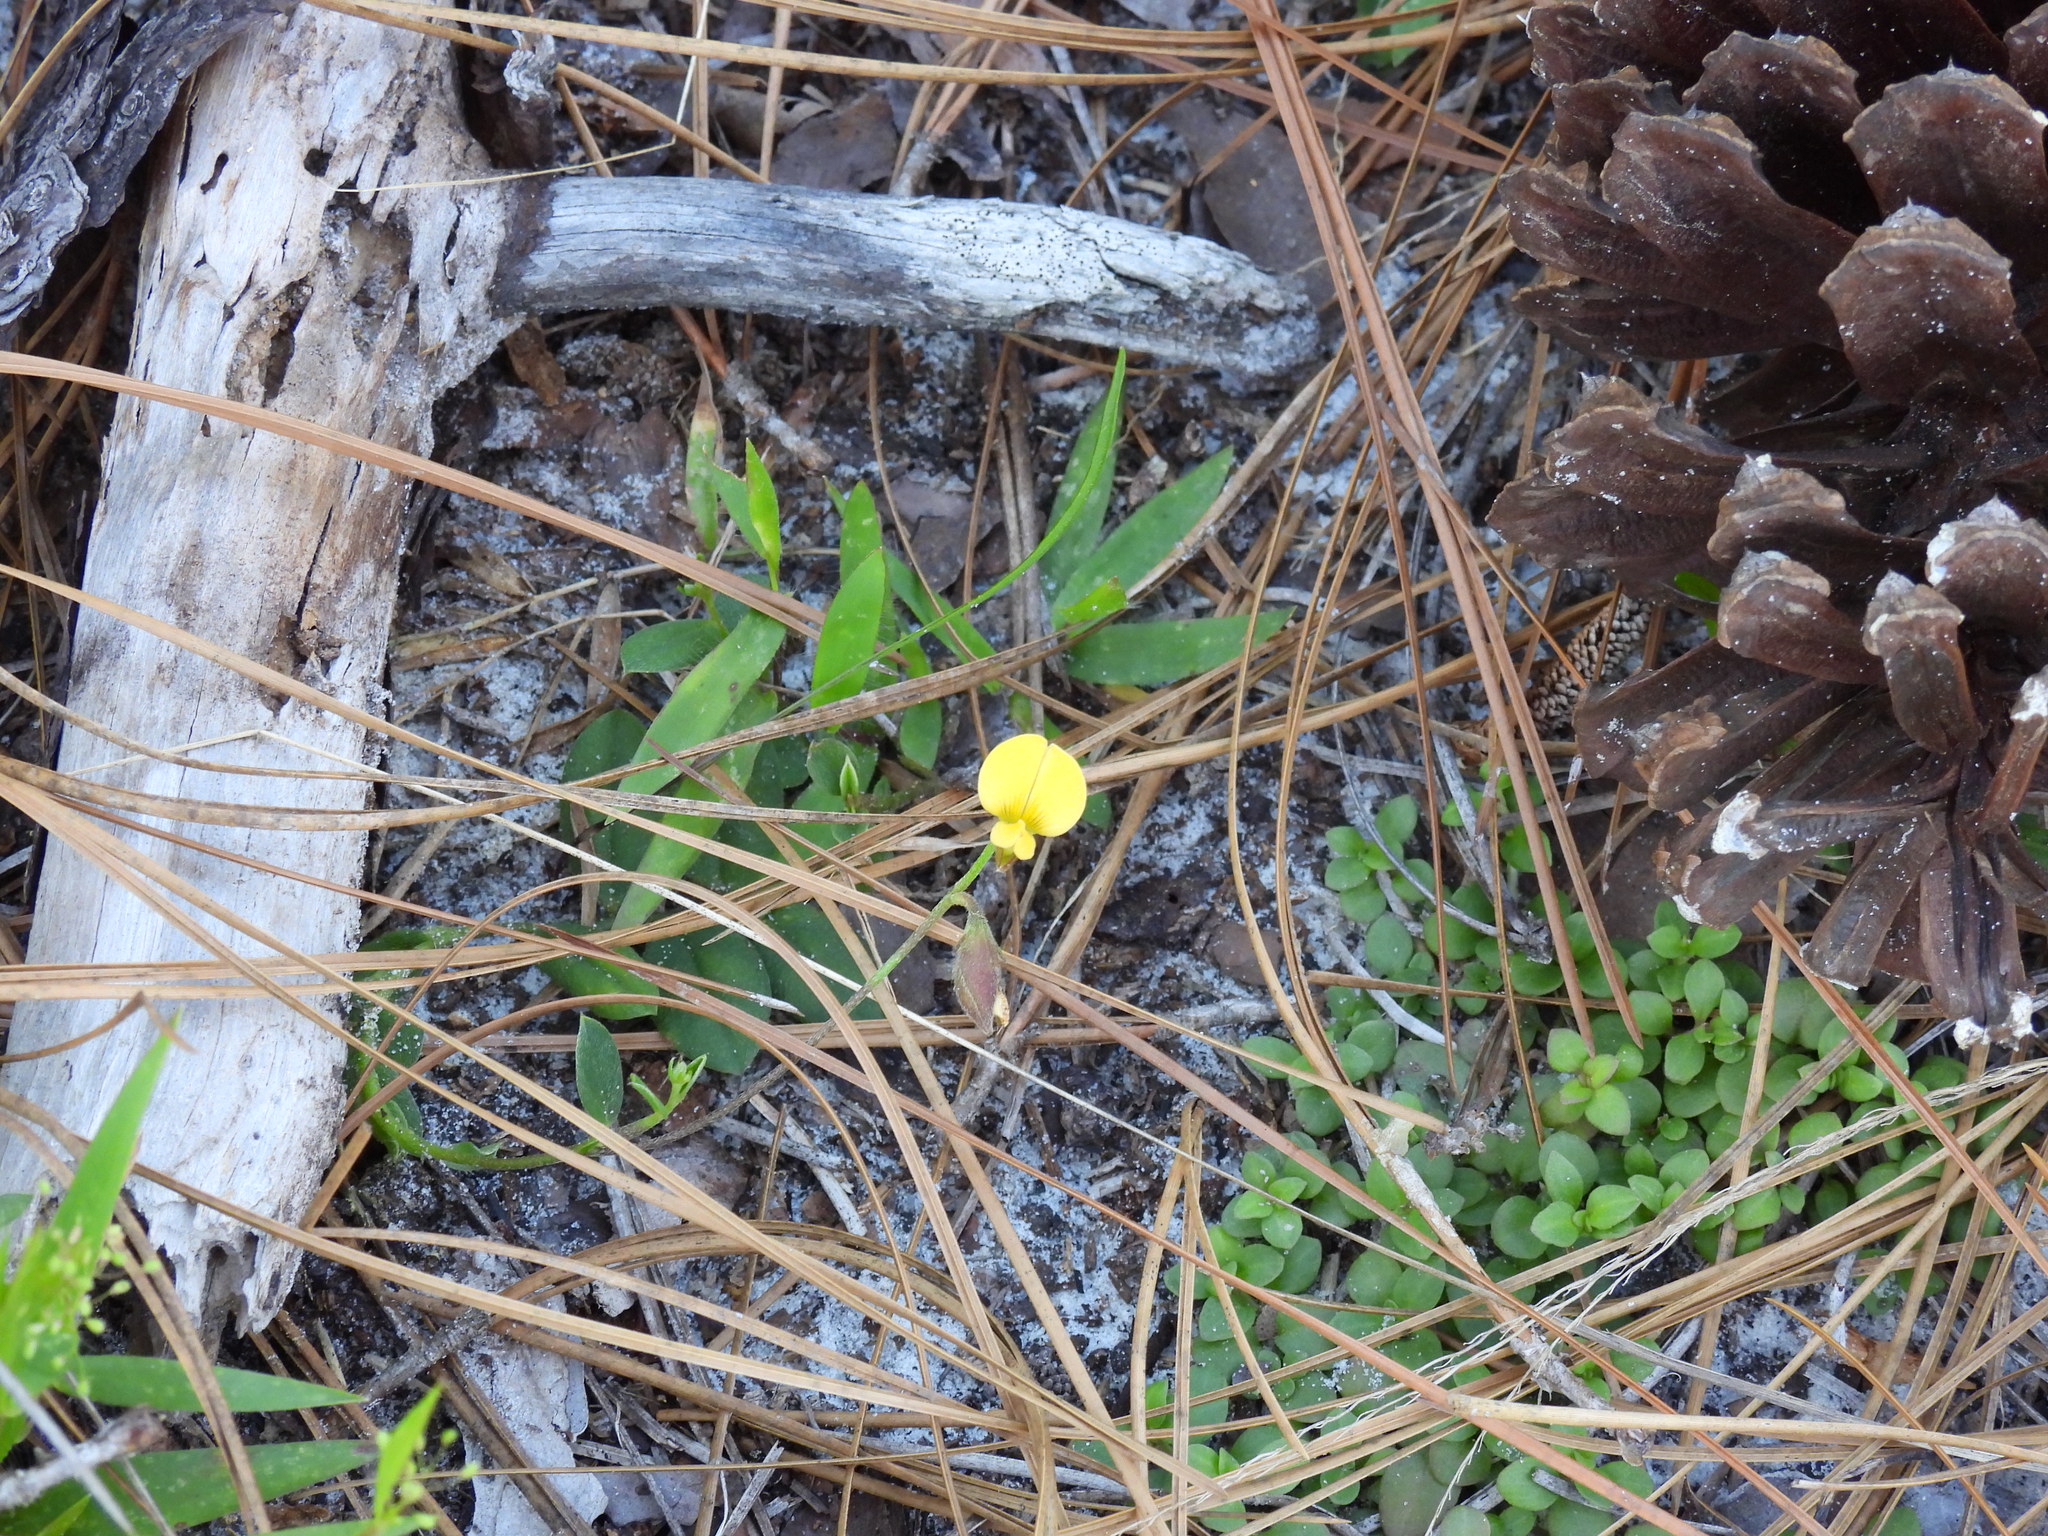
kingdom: Plantae
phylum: Tracheophyta
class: Magnoliopsida
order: Fabales
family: Fabaceae
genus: Crotalaria
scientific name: Crotalaria rotundifolia
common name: Prostrate rattlebox
